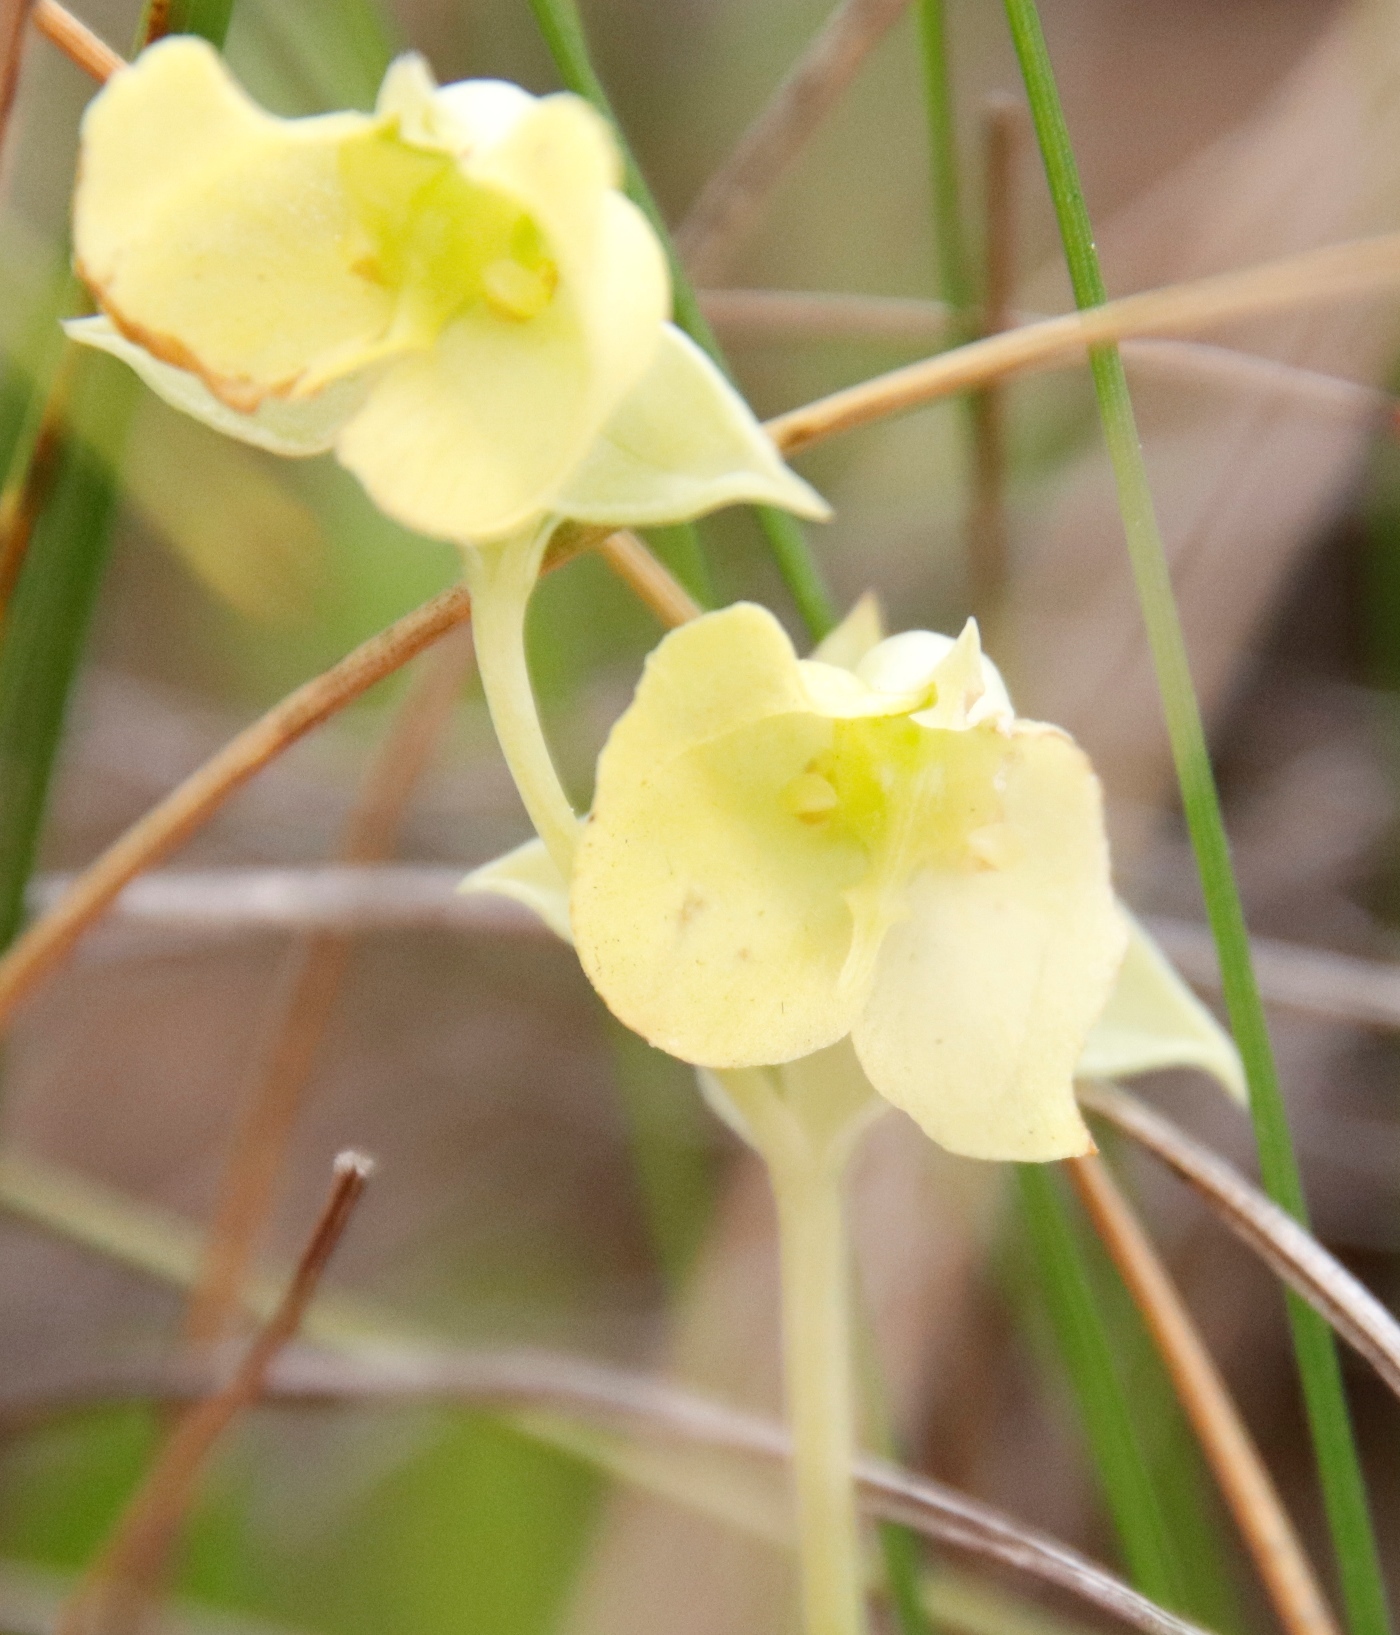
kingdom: Plantae
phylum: Tracheophyta
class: Liliopsida
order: Asparagales
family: Orchidaceae
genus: Pterygodium
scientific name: Pterygodium platypetalum
